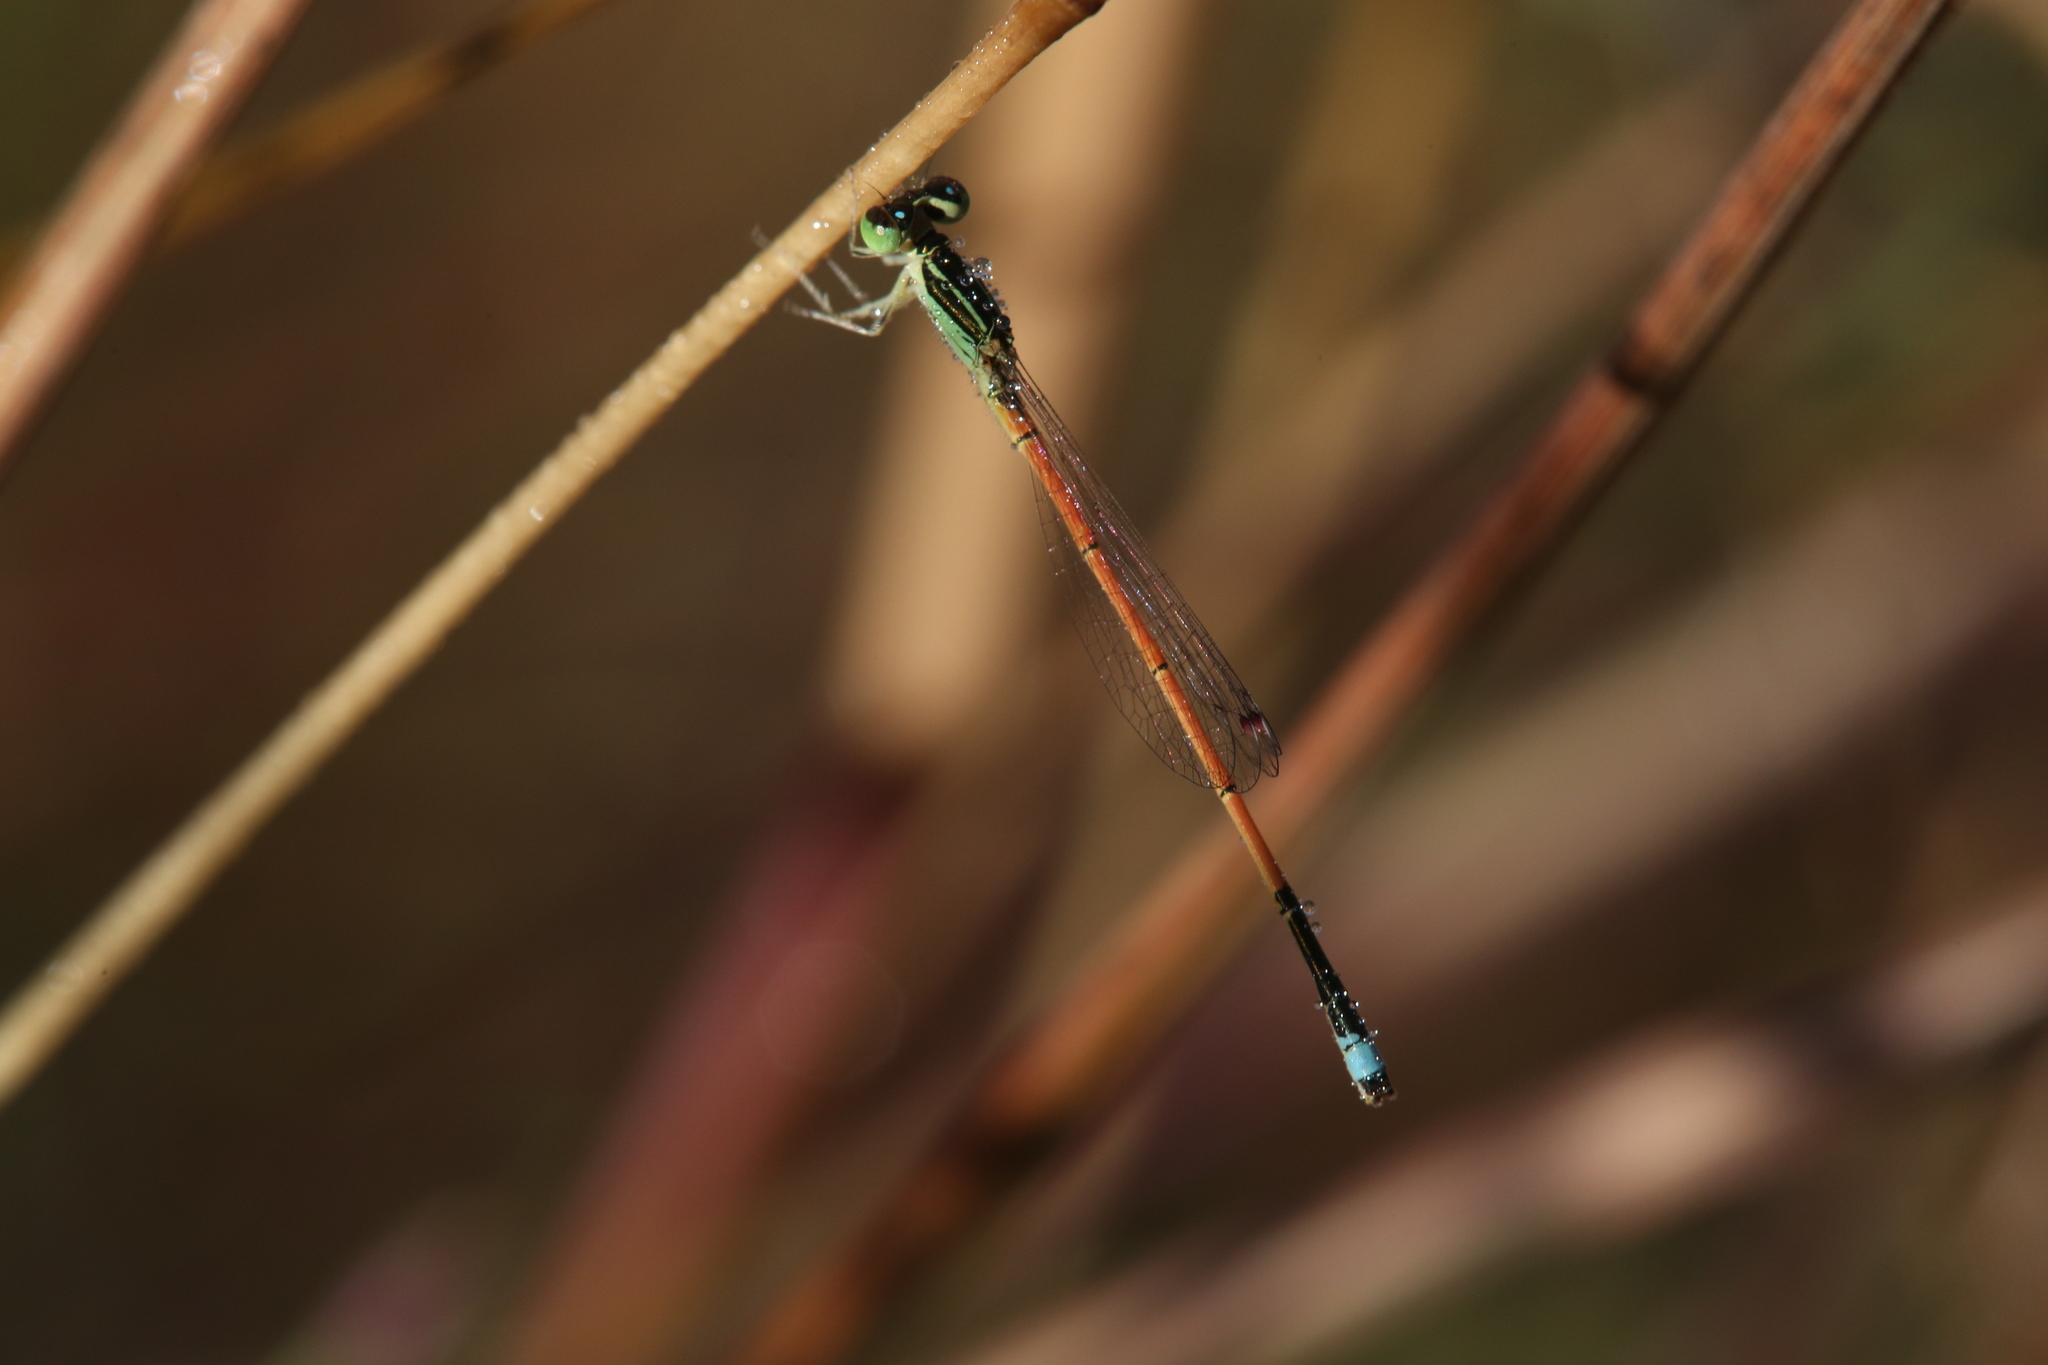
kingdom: Animalia
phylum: Arthropoda
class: Insecta
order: Odonata
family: Coenagrionidae
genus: Ischnura
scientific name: Ischnura aurora
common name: Gossamer damselfly
